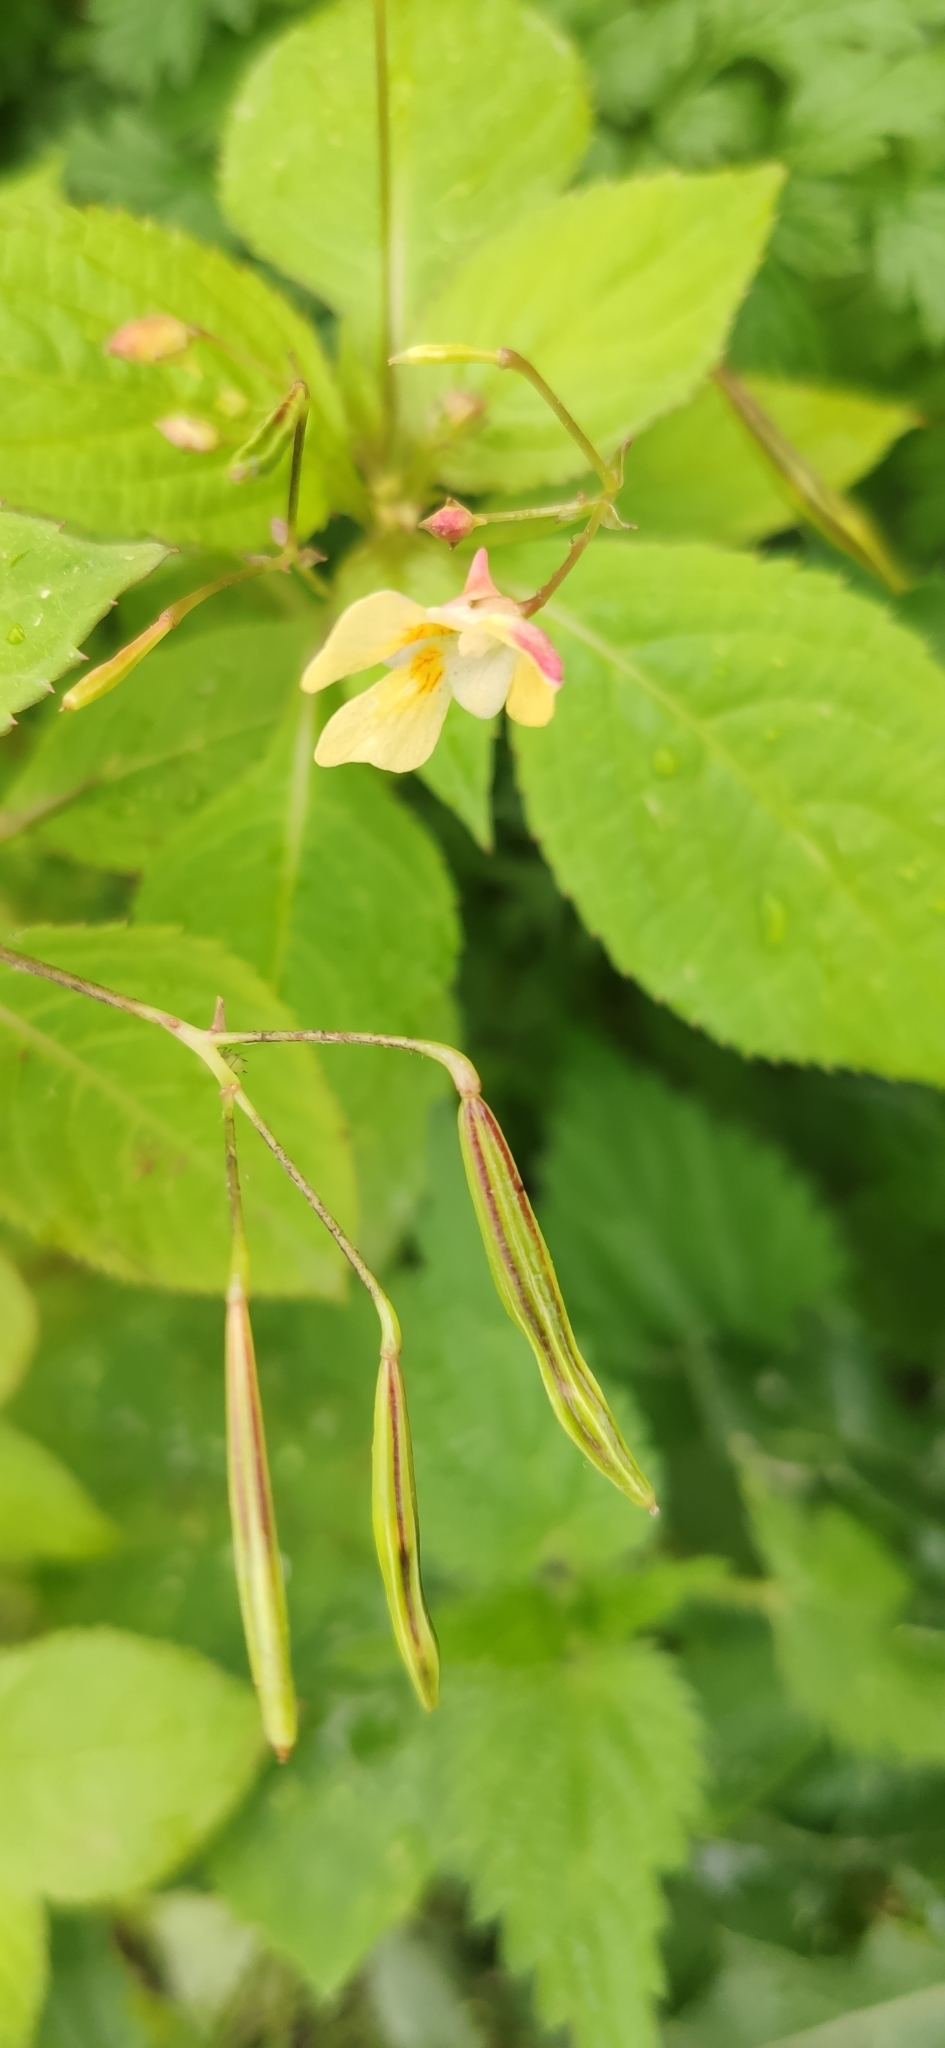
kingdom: Plantae
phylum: Tracheophyta
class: Magnoliopsida
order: Ericales
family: Balsaminaceae
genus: Impatiens
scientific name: Impatiens parviflora
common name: Small balsam
